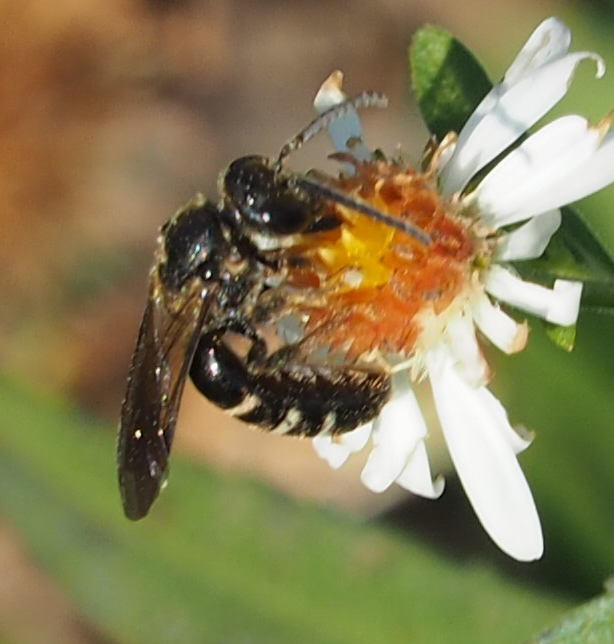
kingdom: Animalia
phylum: Arthropoda
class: Insecta
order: Hymenoptera
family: Halictidae
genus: Lasioglossum
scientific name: Lasioglossum fuscipenne
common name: Brown-winged sweat bee
